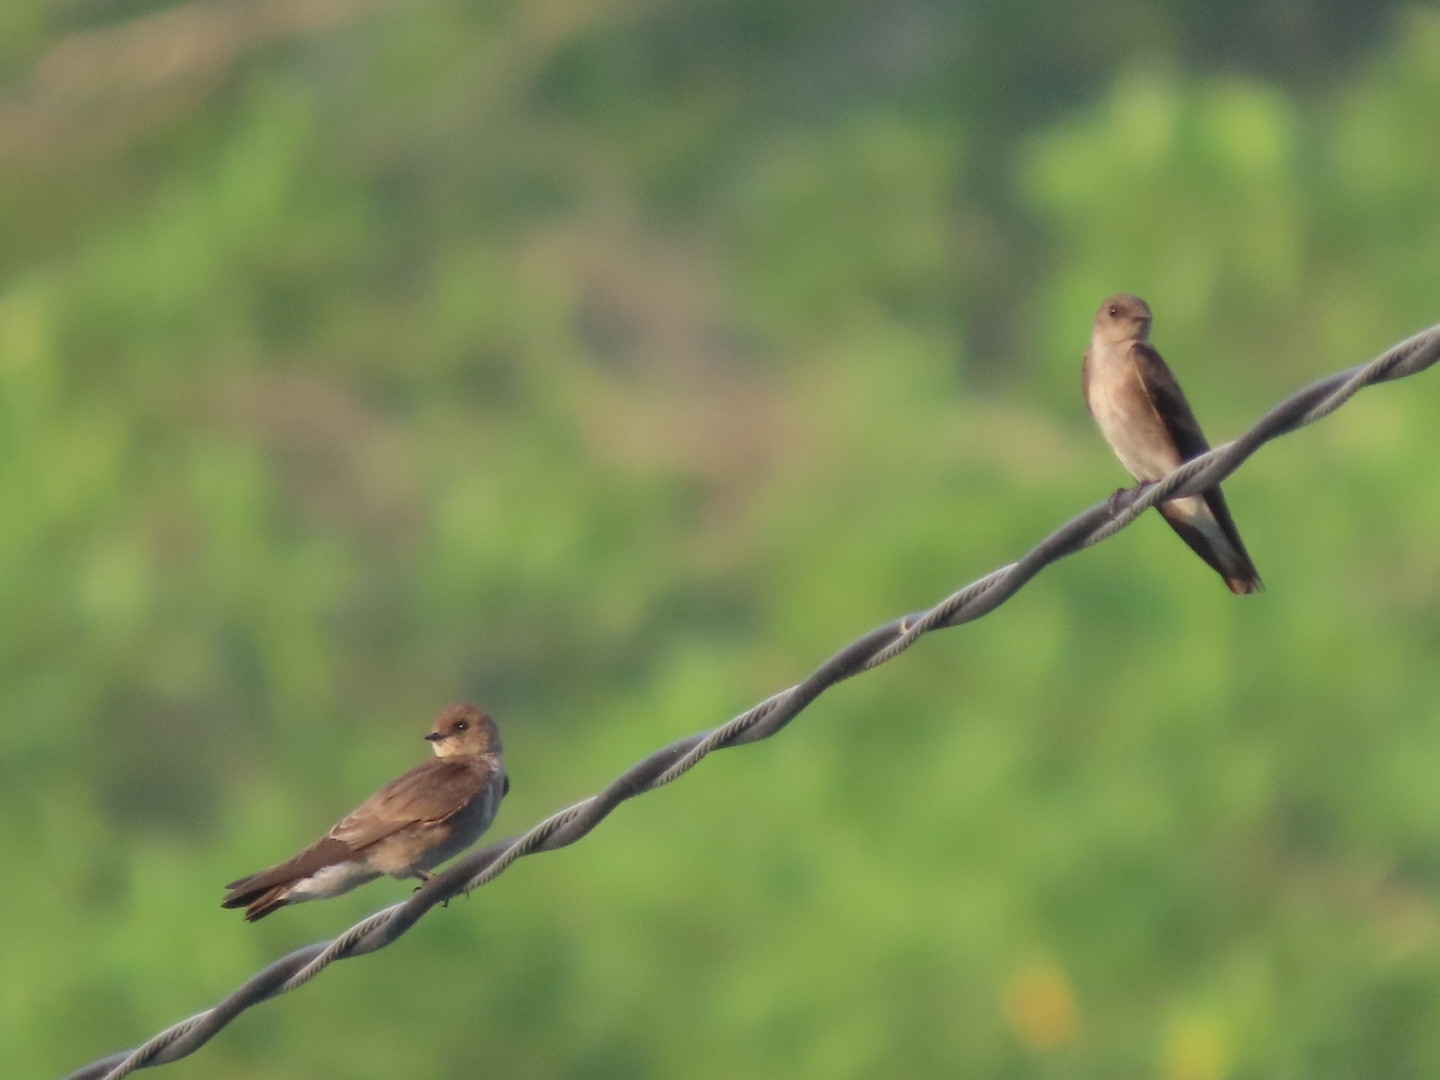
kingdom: Animalia
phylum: Chordata
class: Aves
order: Passeriformes
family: Hirundinidae
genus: Stelgidopteryx
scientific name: Stelgidopteryx serripennis
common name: Northern rough-winged swallow
